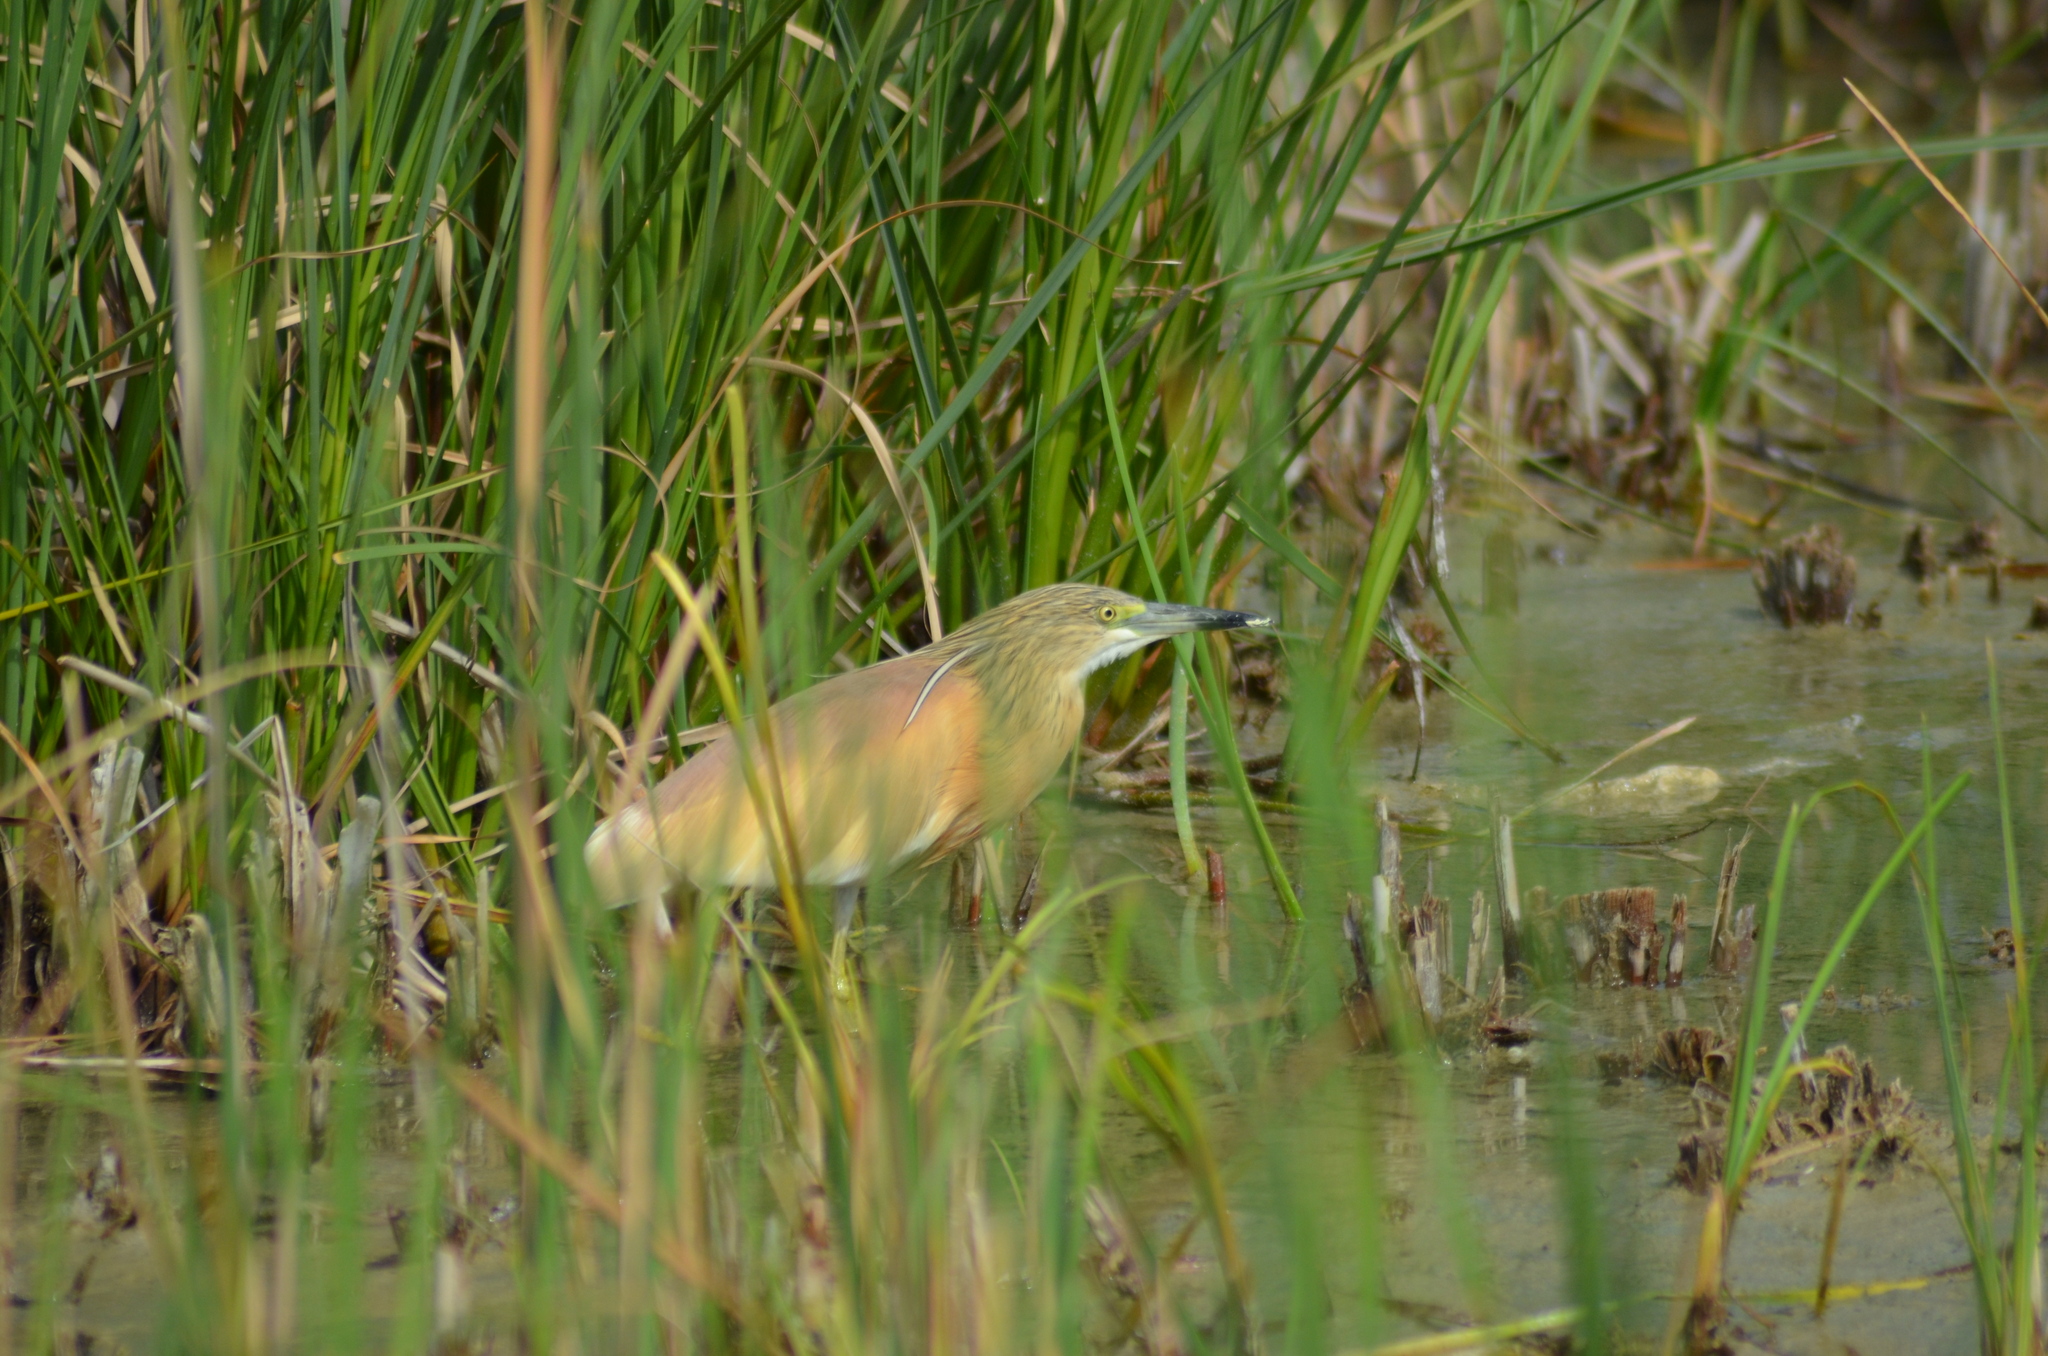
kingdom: Animalia
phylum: Chordata
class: Aves
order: Pelecaniformes
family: Ardeidae
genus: Ardeola
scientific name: Ardeola ralloides
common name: Squacco heron
